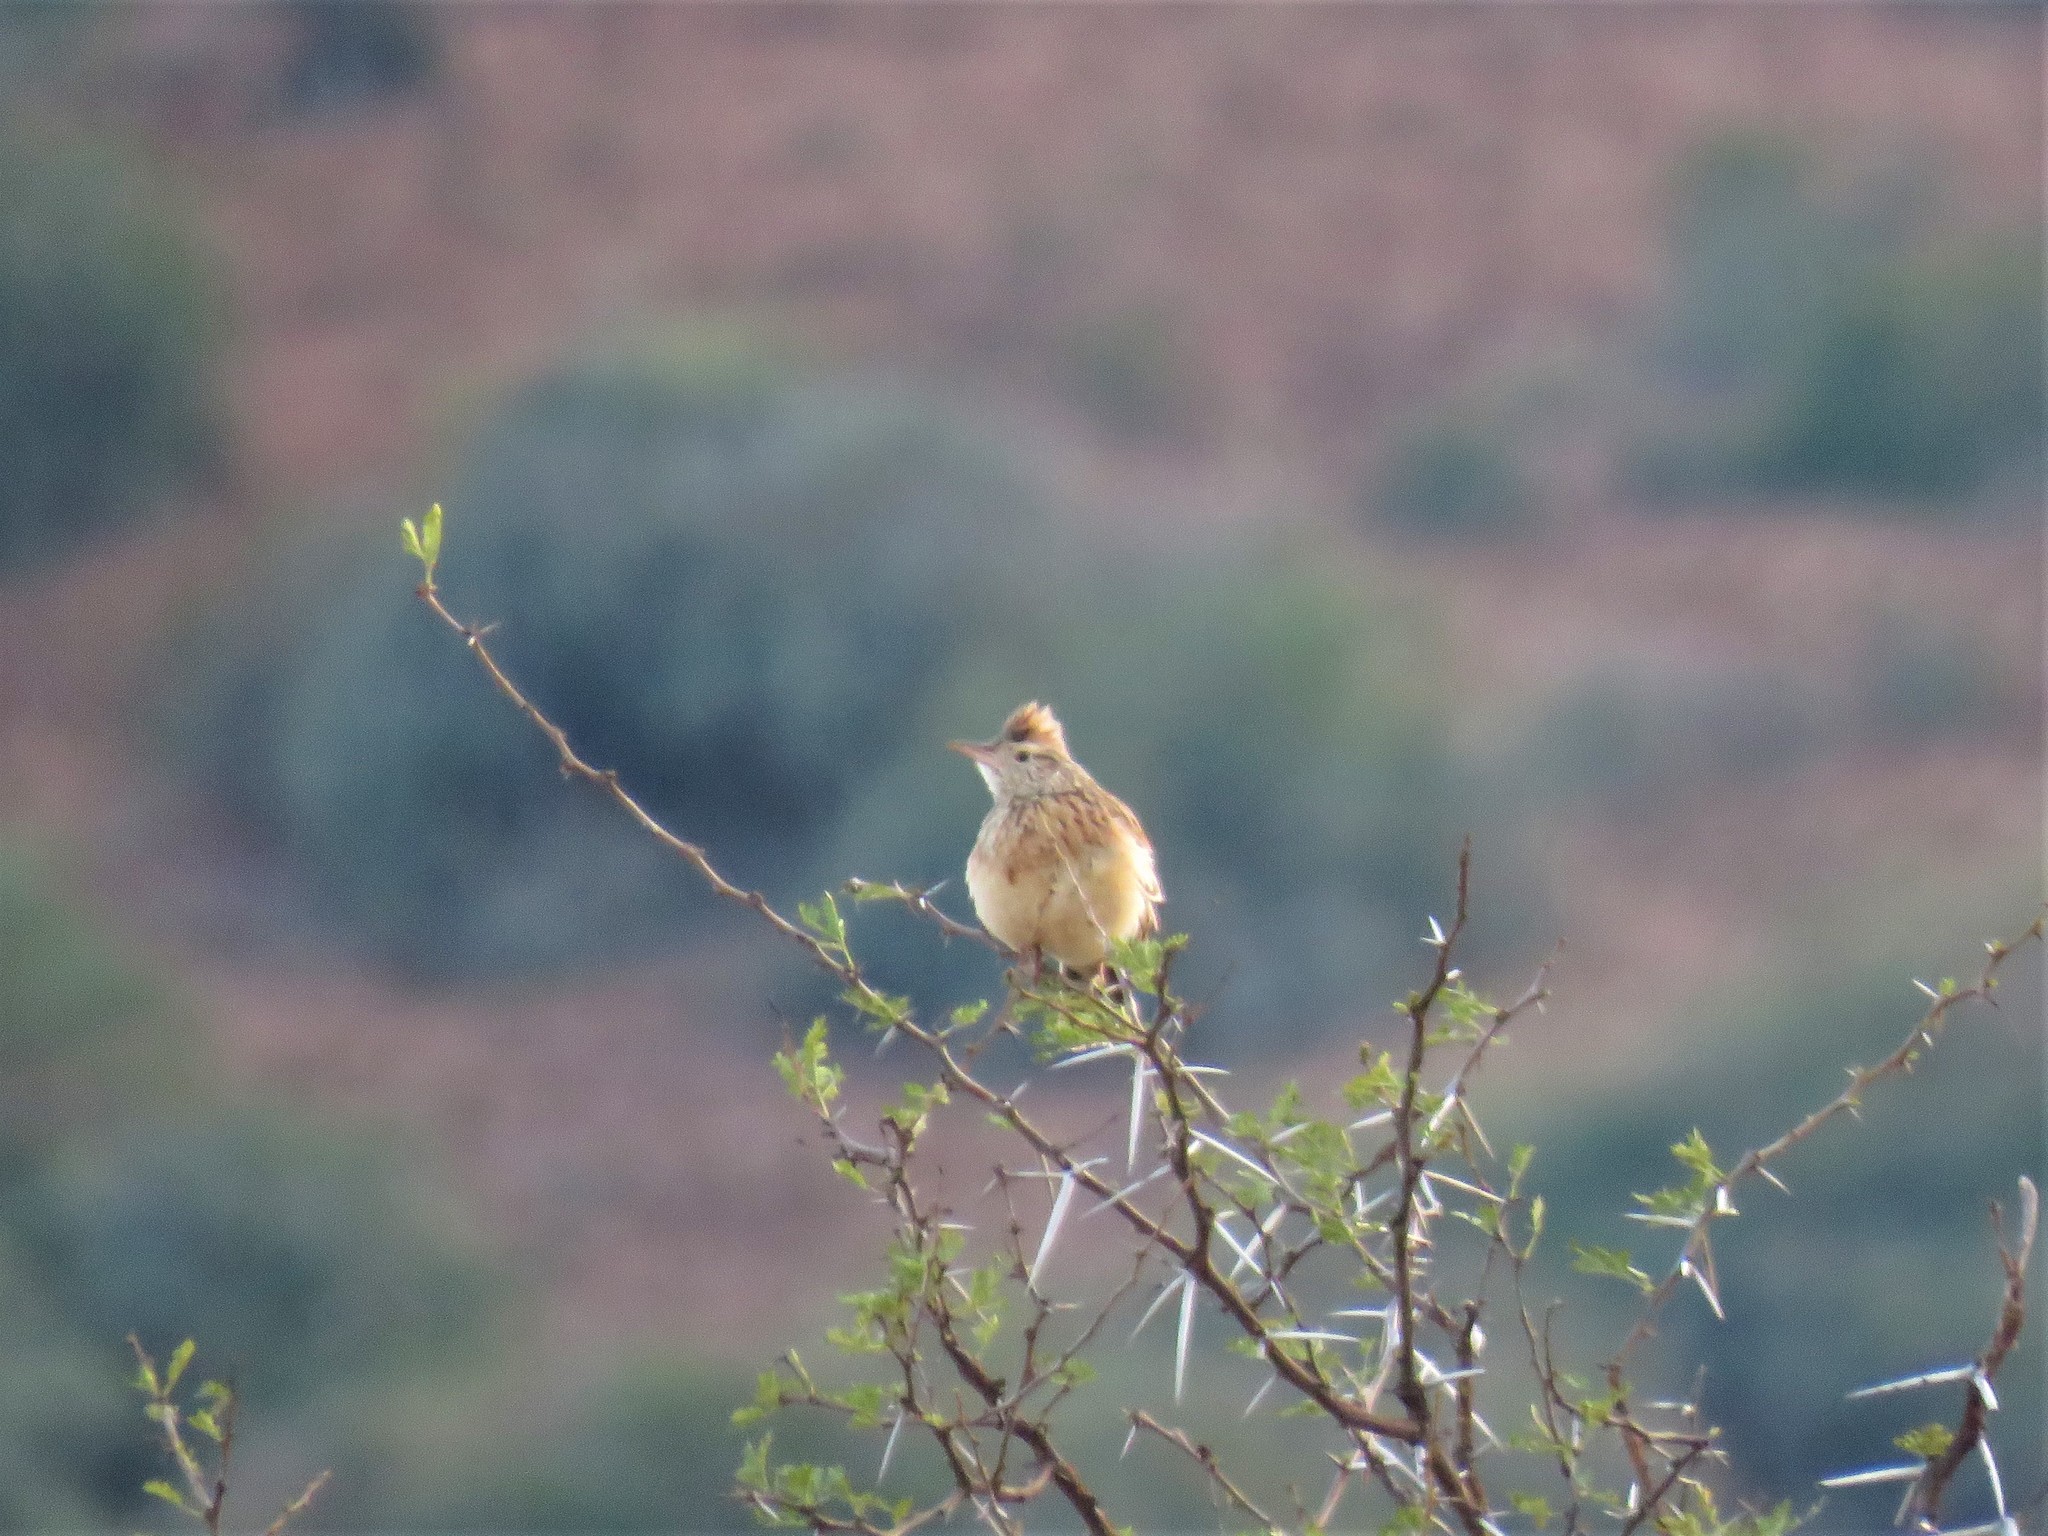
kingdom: Animalia
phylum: Chordata
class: Aves
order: Passeriformes
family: Alaudidae
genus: Mirafra
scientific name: Mirafra africana
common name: Rufous-naped lark
